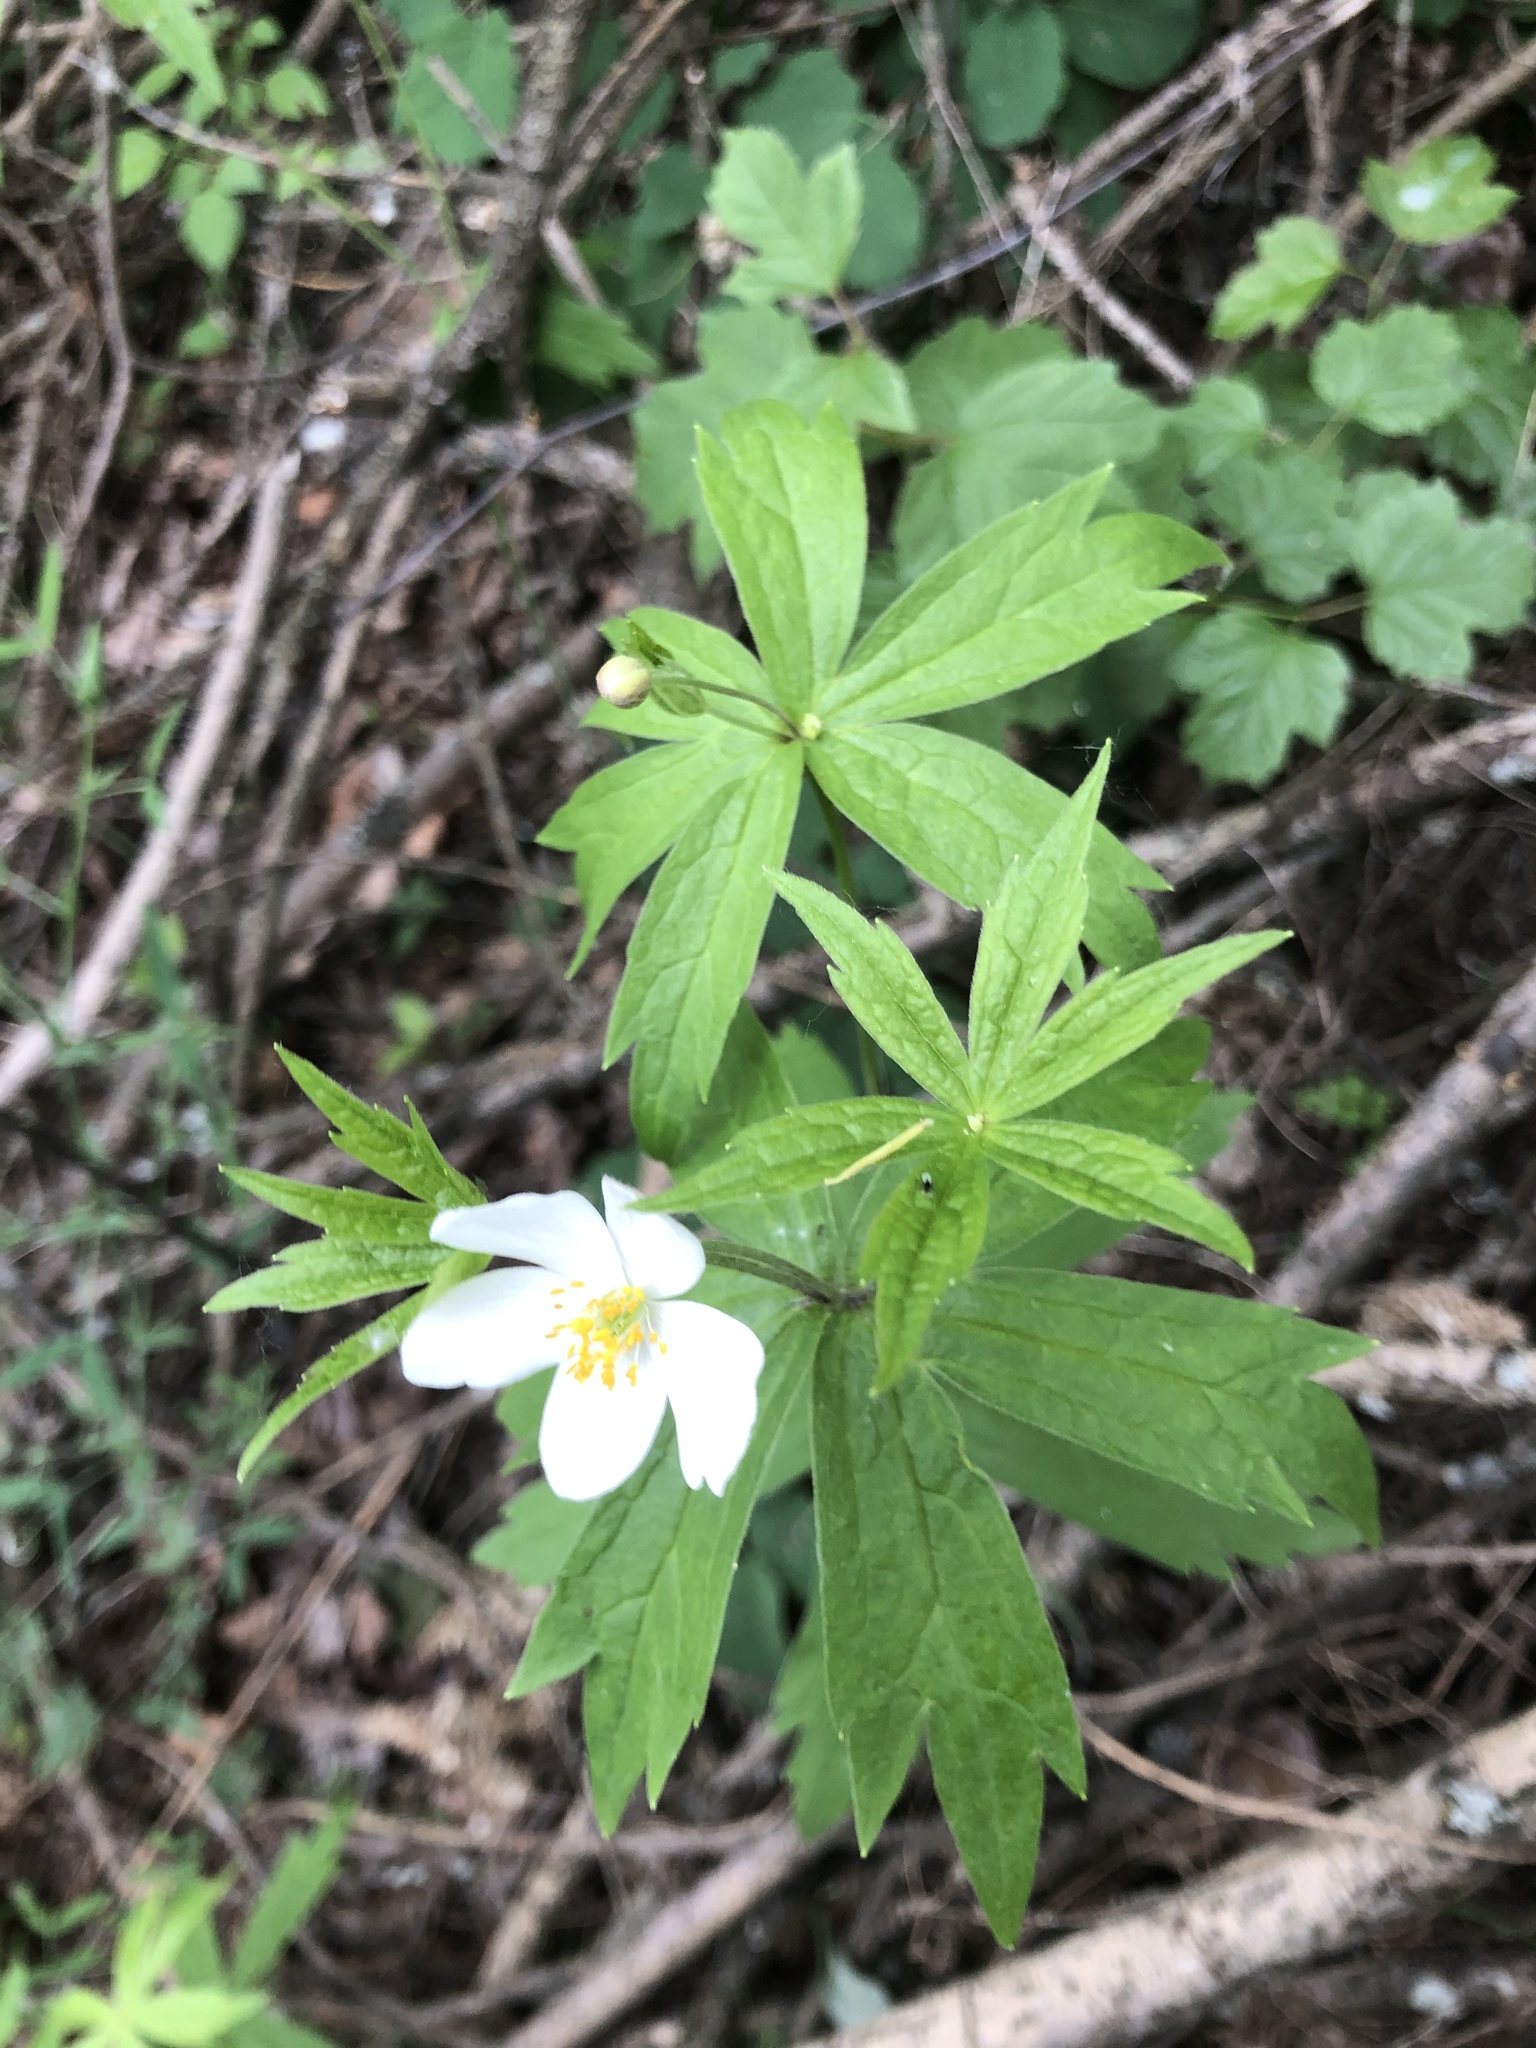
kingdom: Plantae
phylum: Tracheophyta
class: Magnoliopsida
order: Ranunculales
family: Ranunculaceae
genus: Anemonastrum
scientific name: Anemonastrum dichotomum
